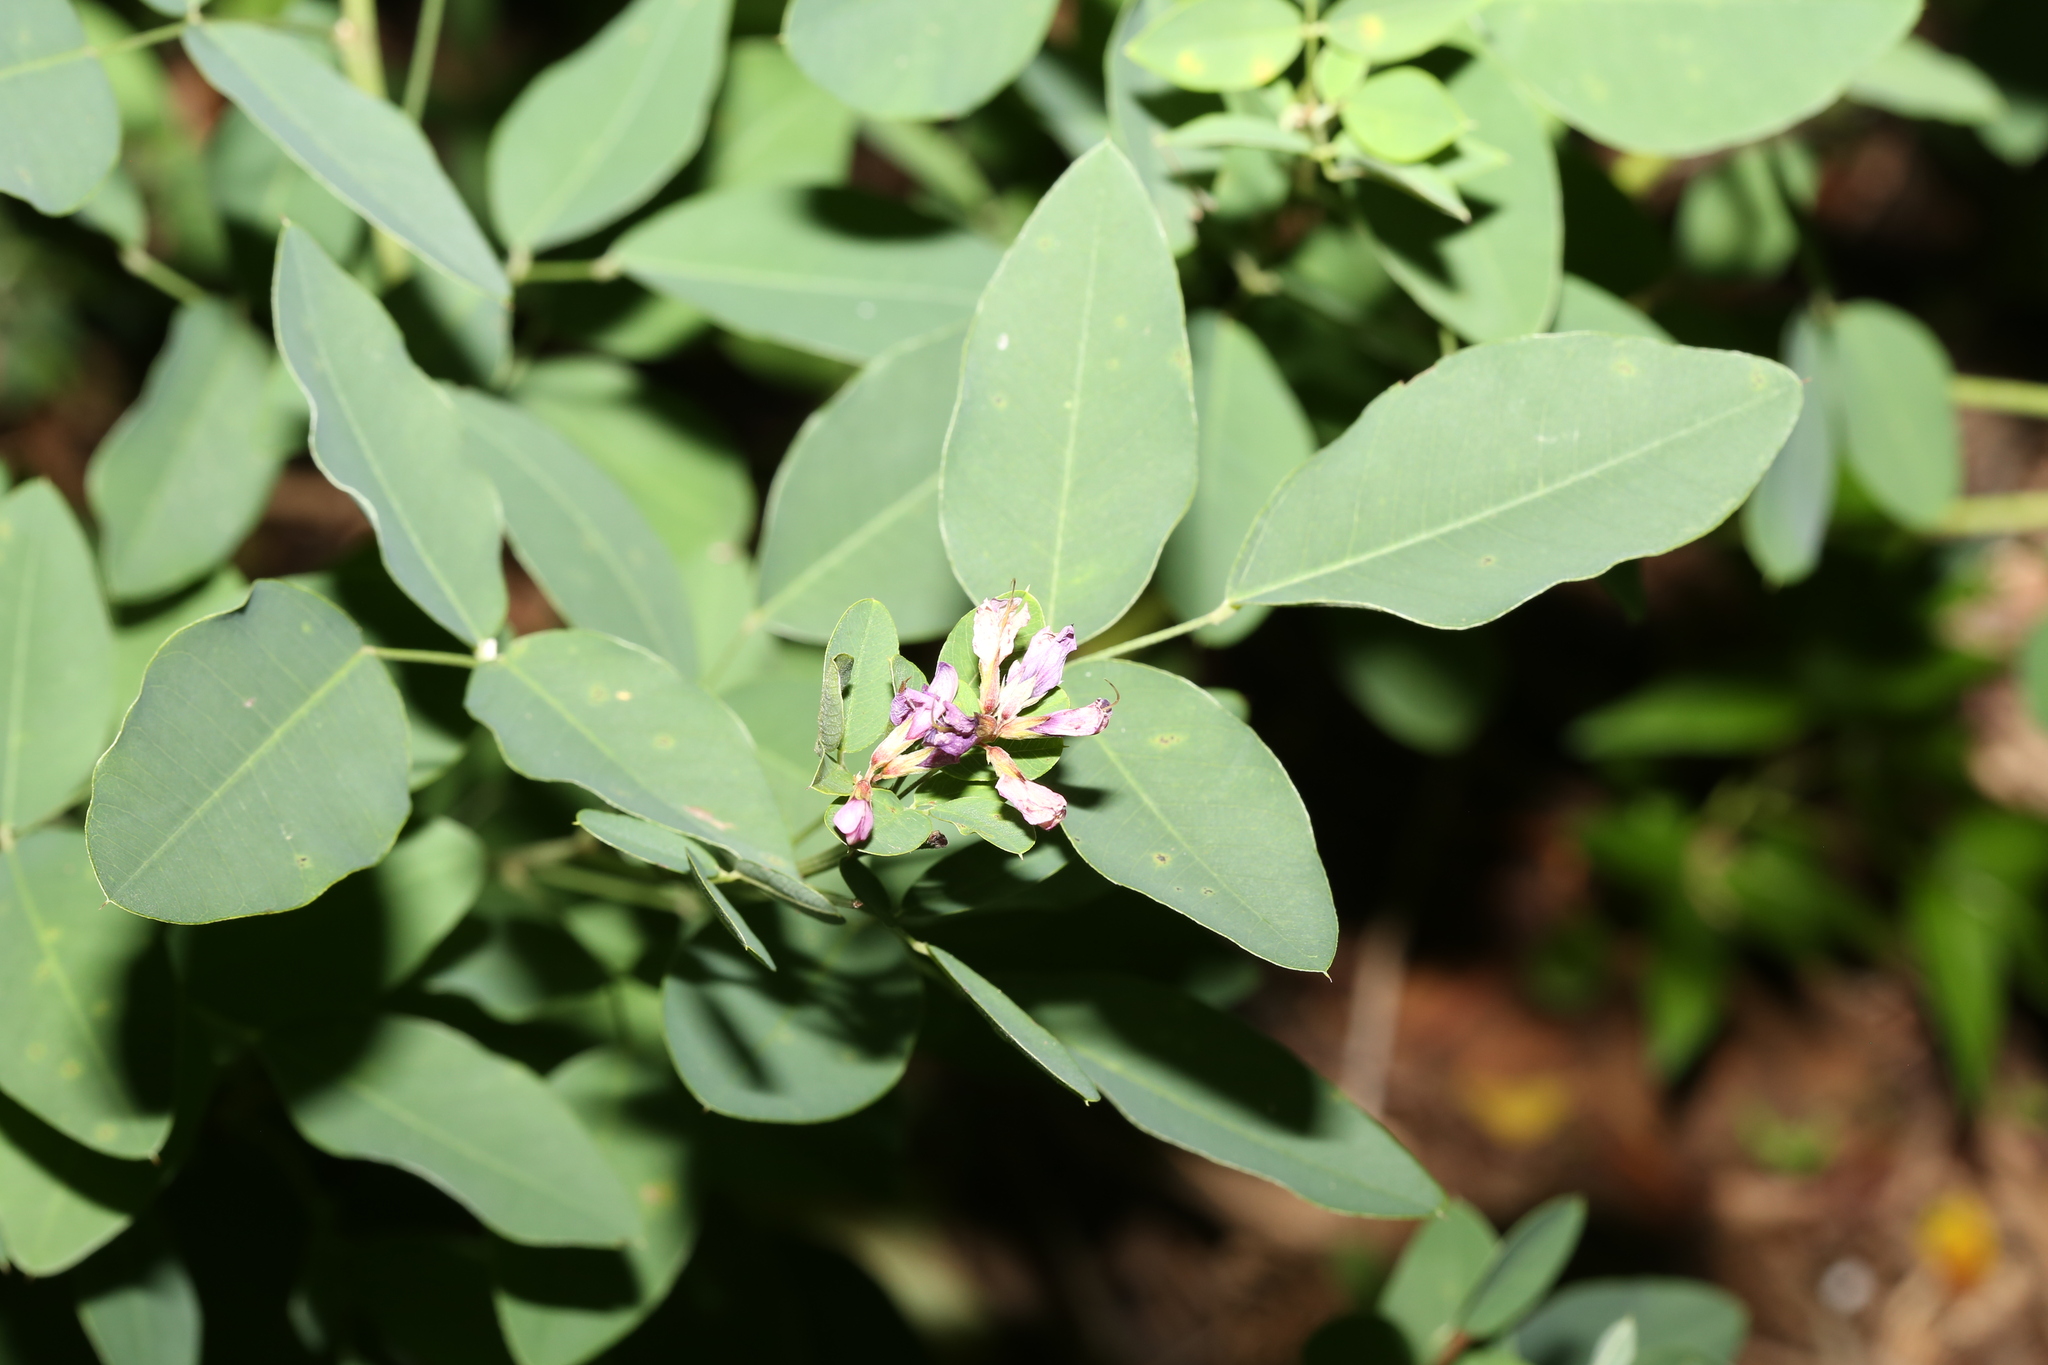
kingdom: Plantae
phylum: Tracheophyta
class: Magnoliopsida
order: Fabales
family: Fabaceae
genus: Lespedeza
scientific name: Lespedeza bicolor
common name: Shrub lespedeza
